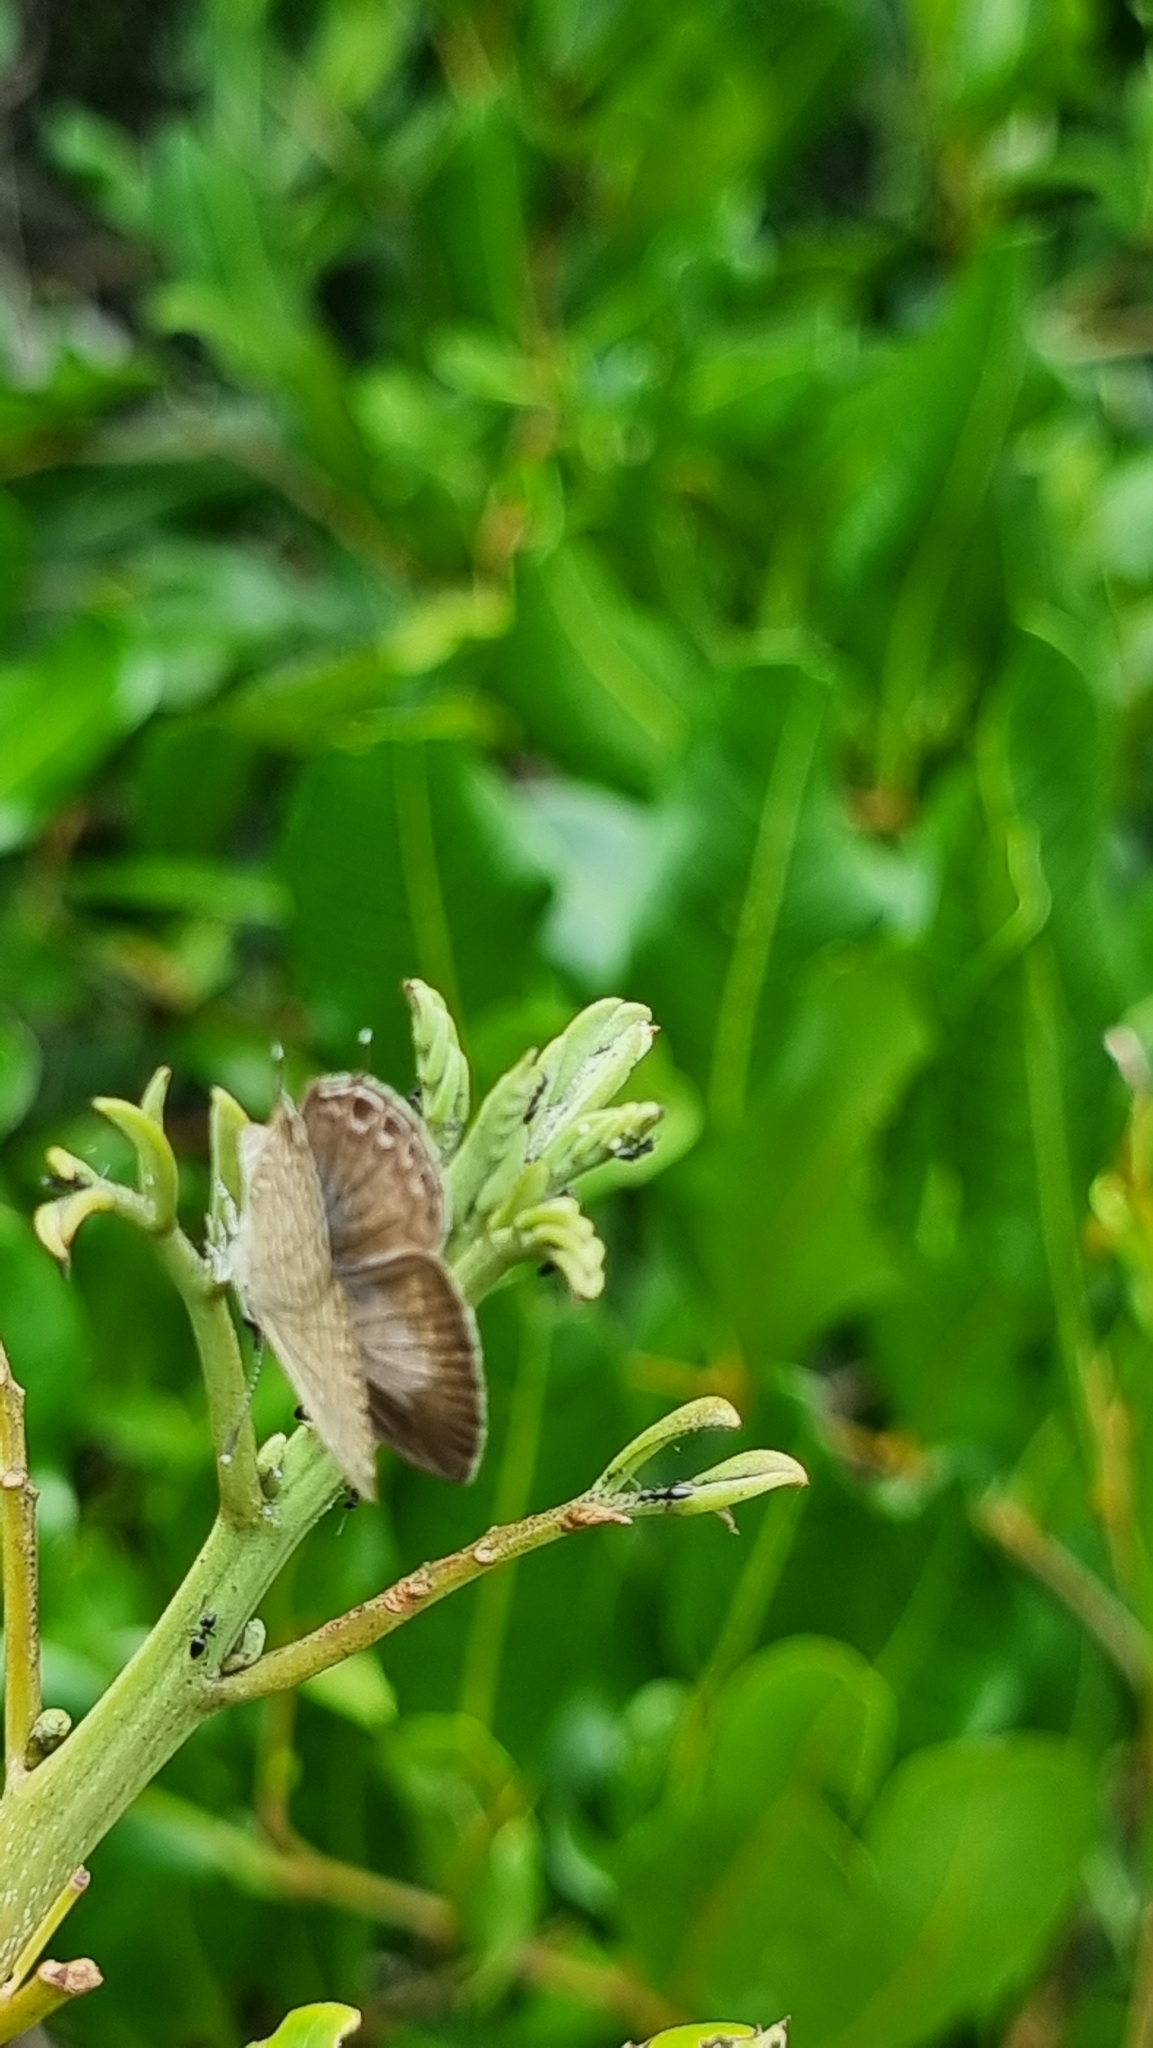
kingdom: Animalia
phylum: Arthropoda
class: Insecta
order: Lepidoptera
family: Lycaenidae
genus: Nacaduba
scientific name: Nacaduba berenice
